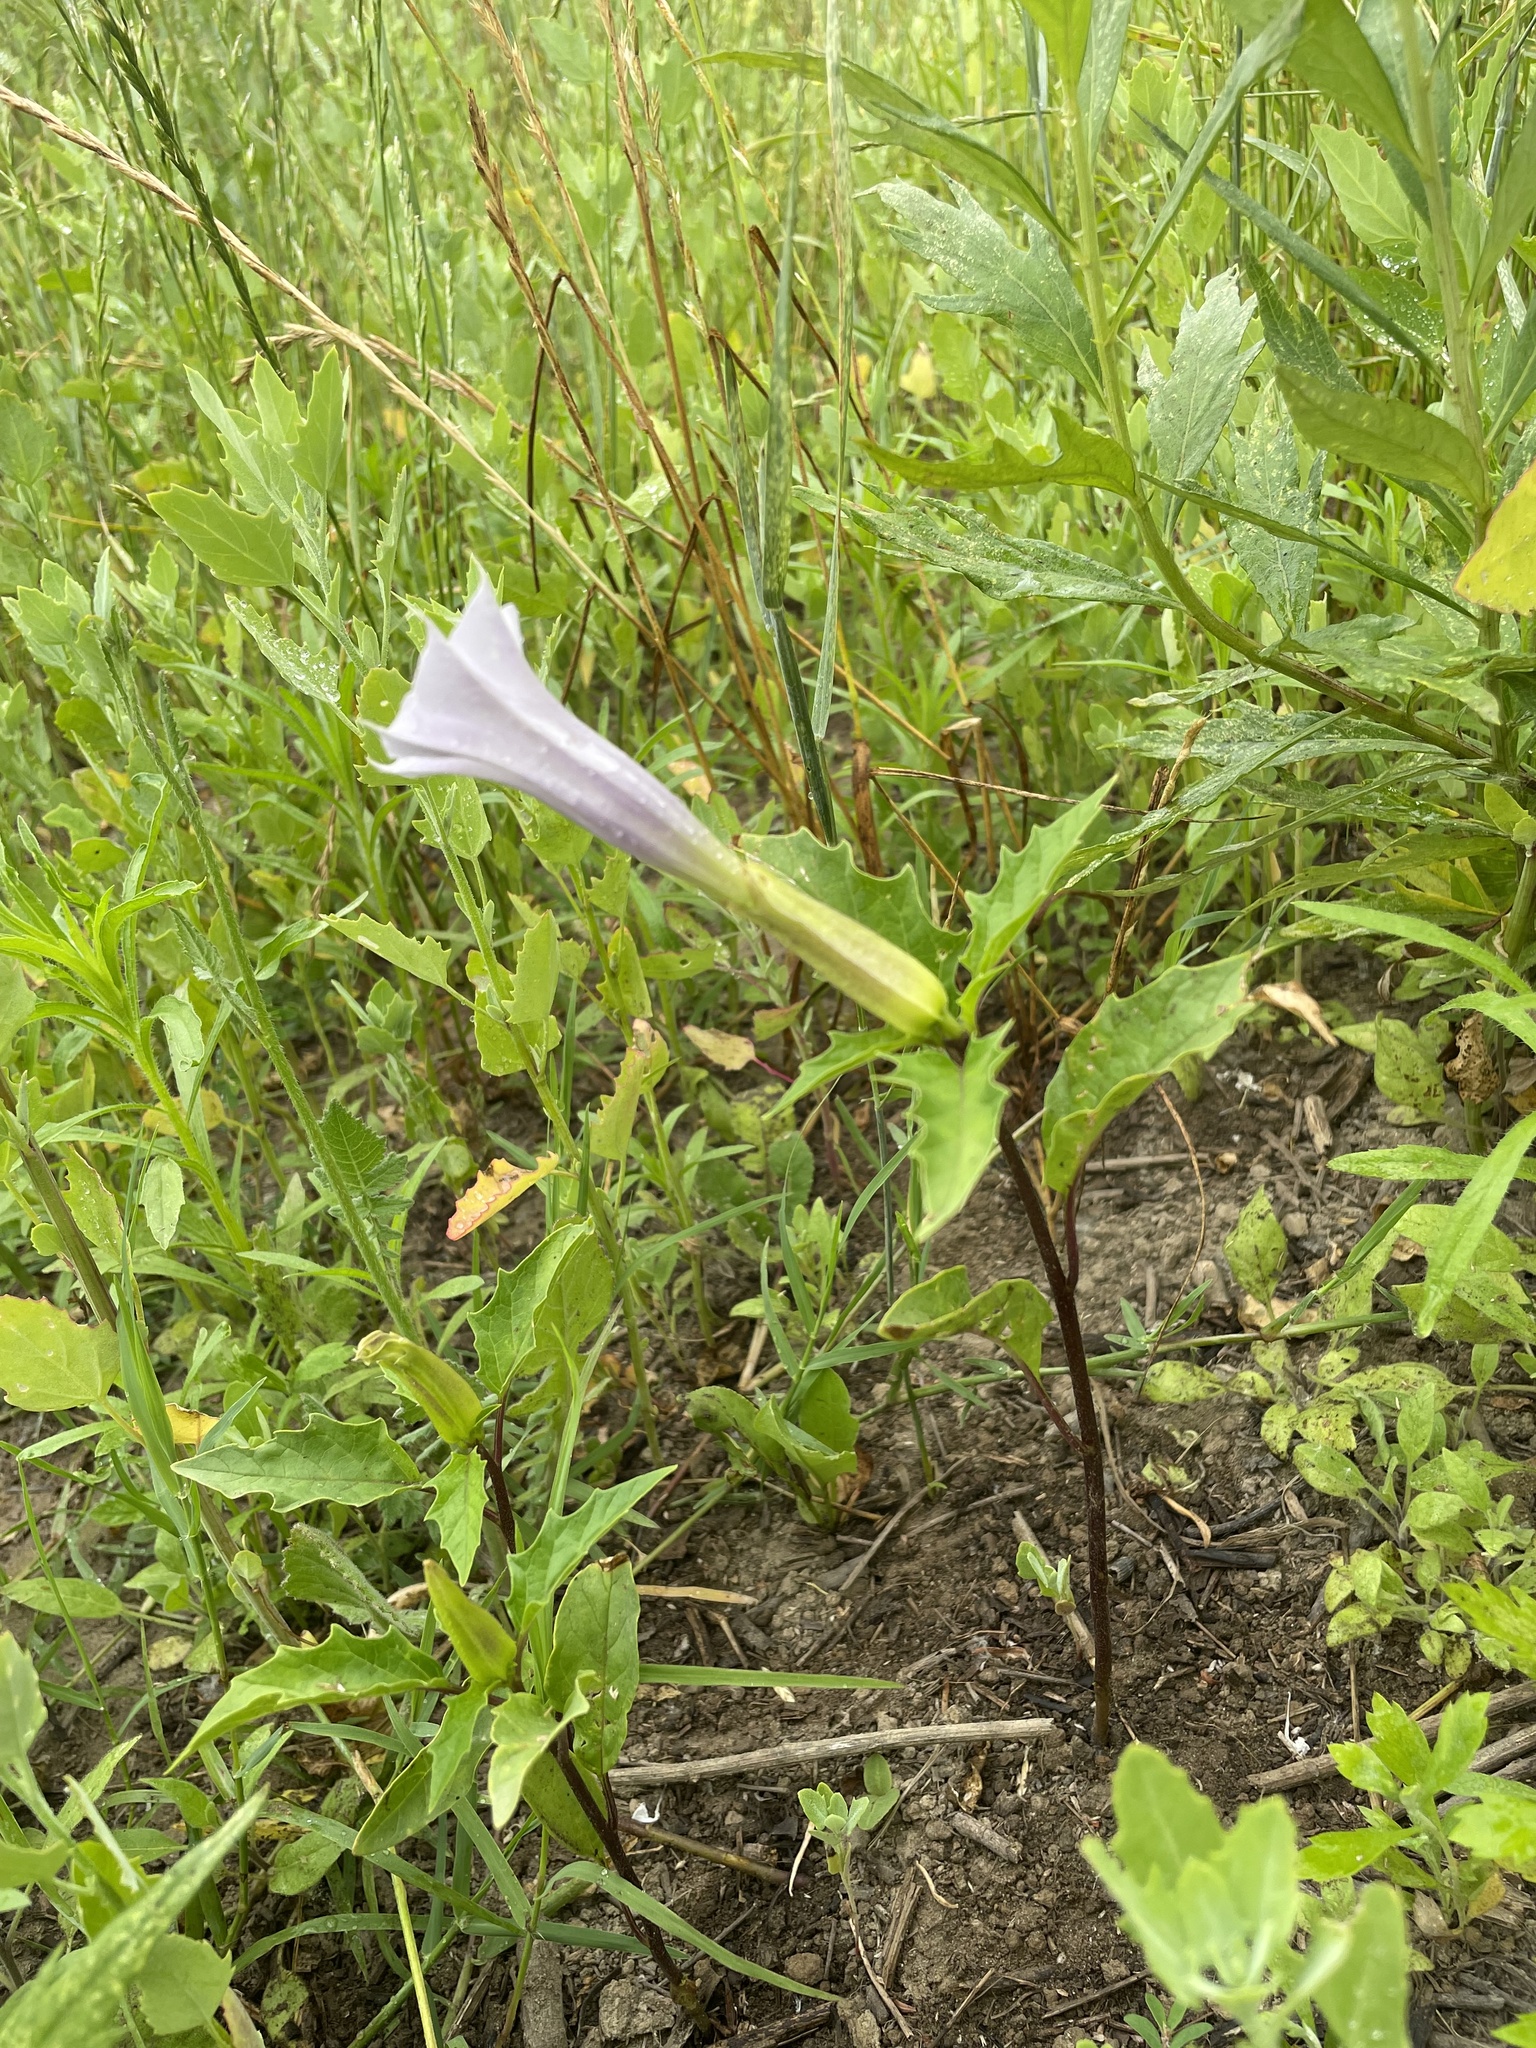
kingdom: Plantae
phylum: Tracheophyta
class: Magnoliopsida
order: Solanales
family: Solanaceae
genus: Datura
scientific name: Datura stramonium
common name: Thorn-apple
